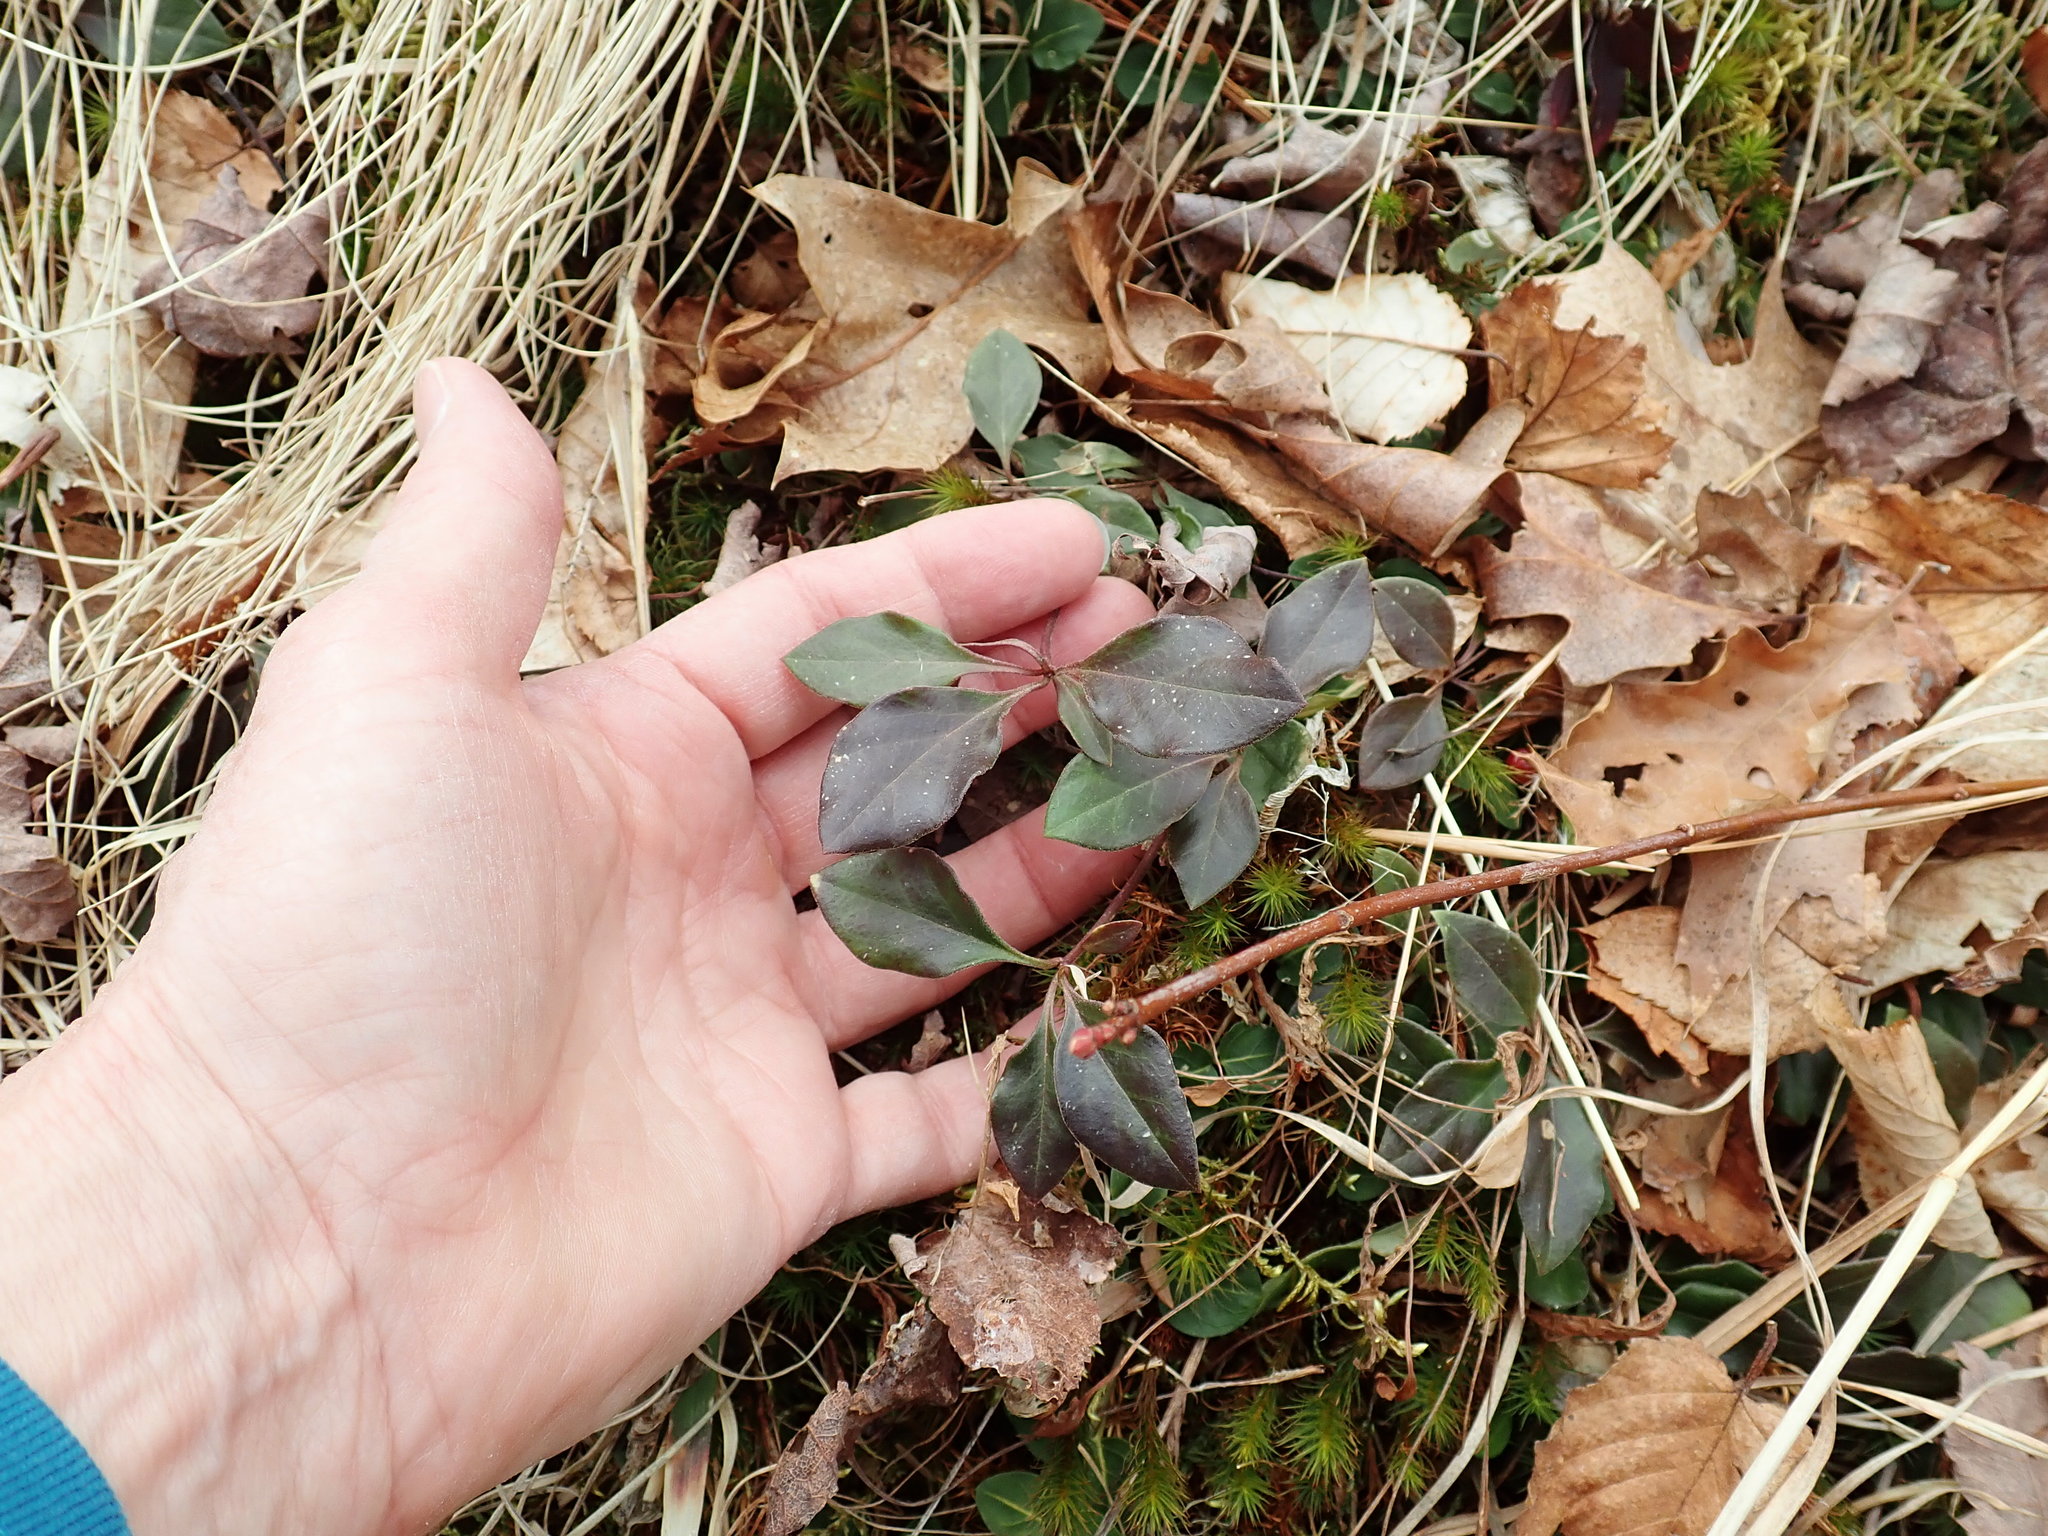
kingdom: Plantae
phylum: Tracheophyta
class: Magnoliopsida
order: Fabales
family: Polygalaceae
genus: Polygaloides
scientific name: Polygaloides paucifolia
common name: Bird-on-the-wing
